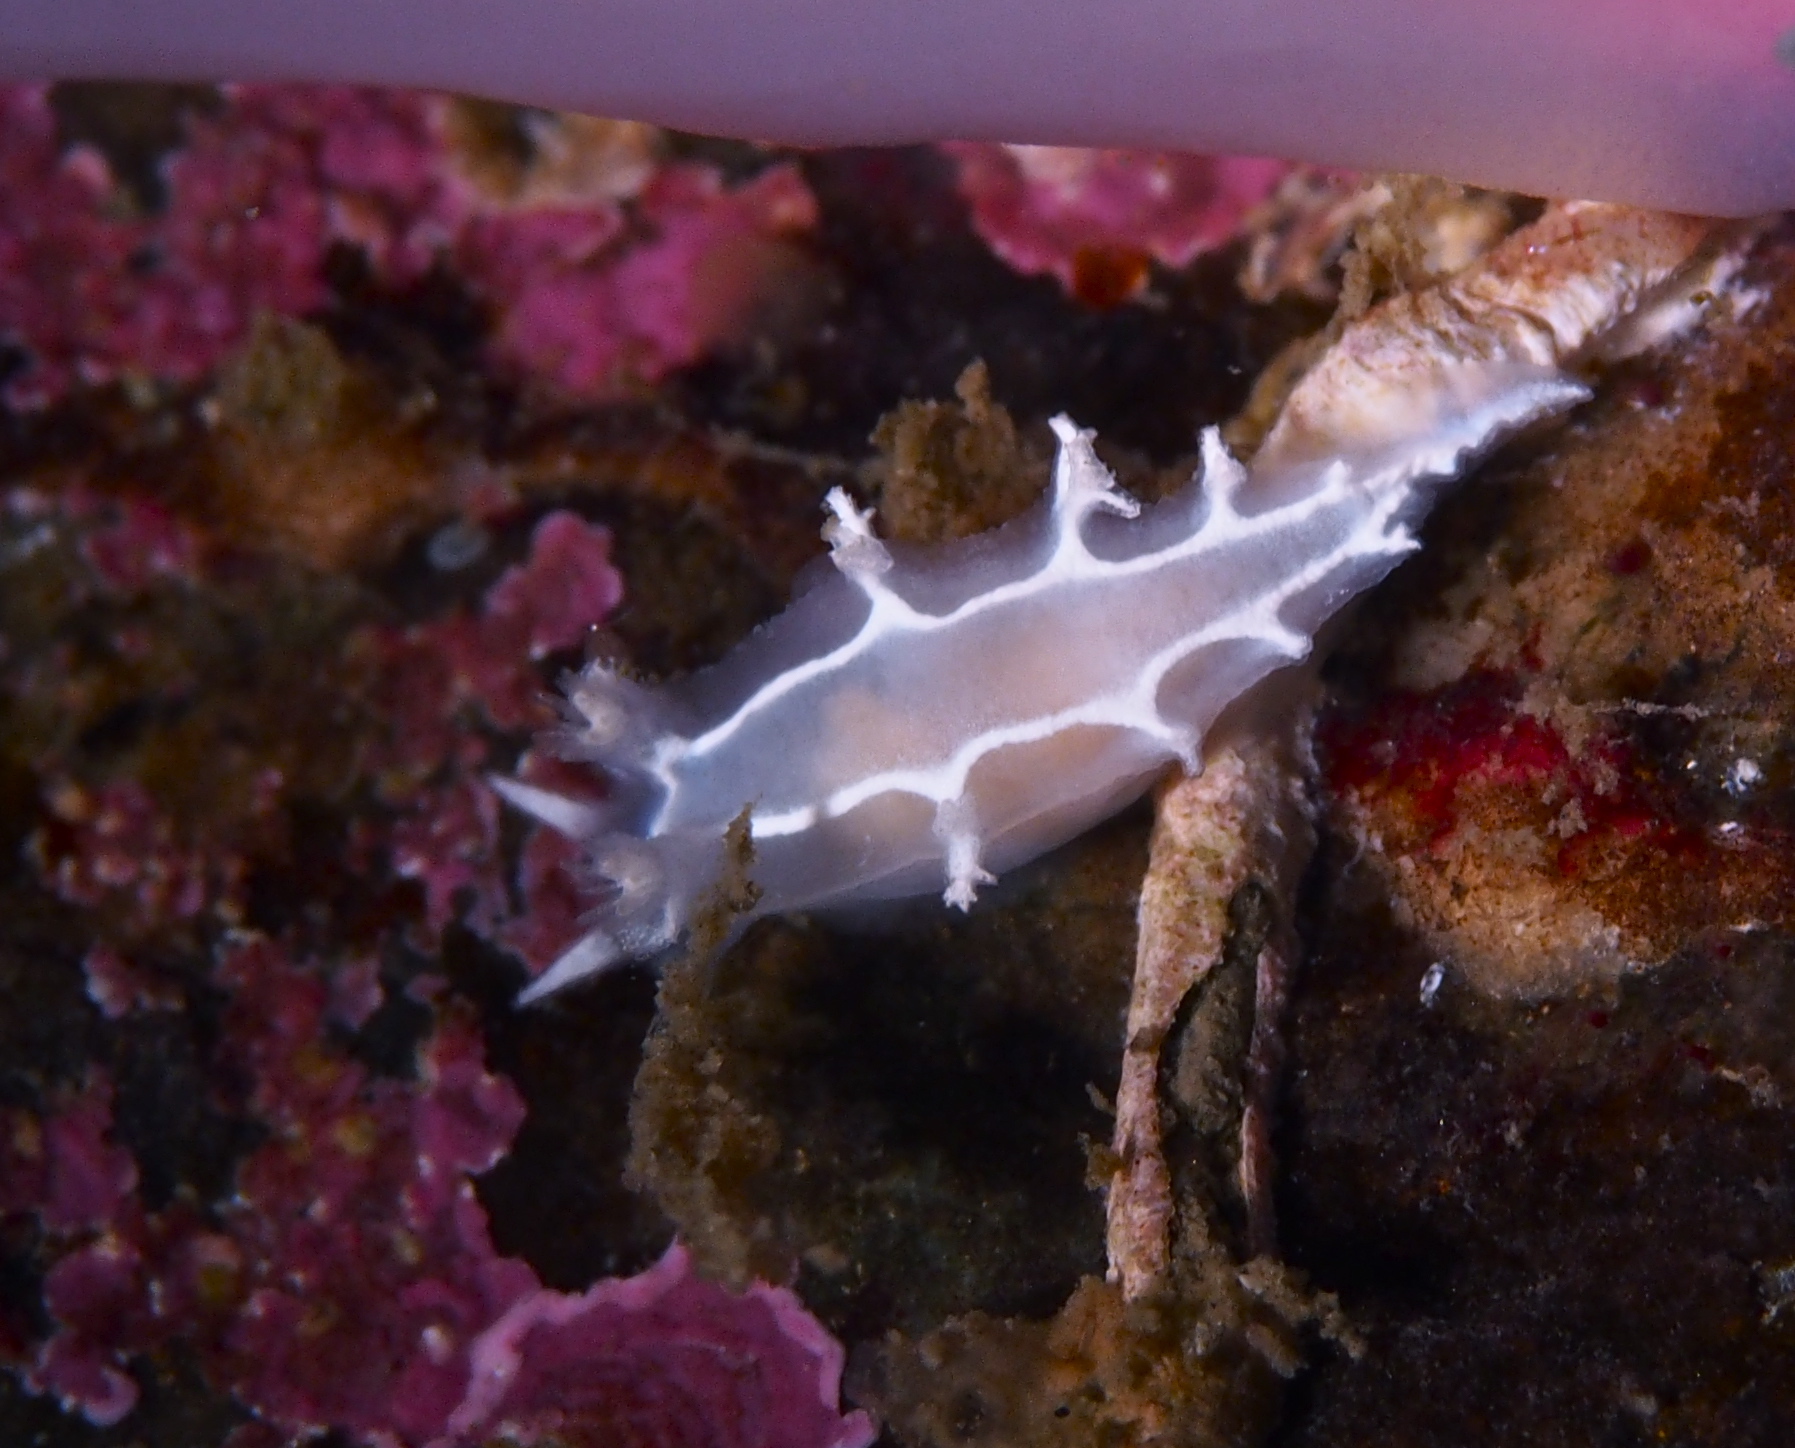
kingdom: Animalia
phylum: Mollusca
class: Gastropoda
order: Nudibranchia
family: Tritoniidae
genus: Duvaucelia
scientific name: Duvaucelia lineata
